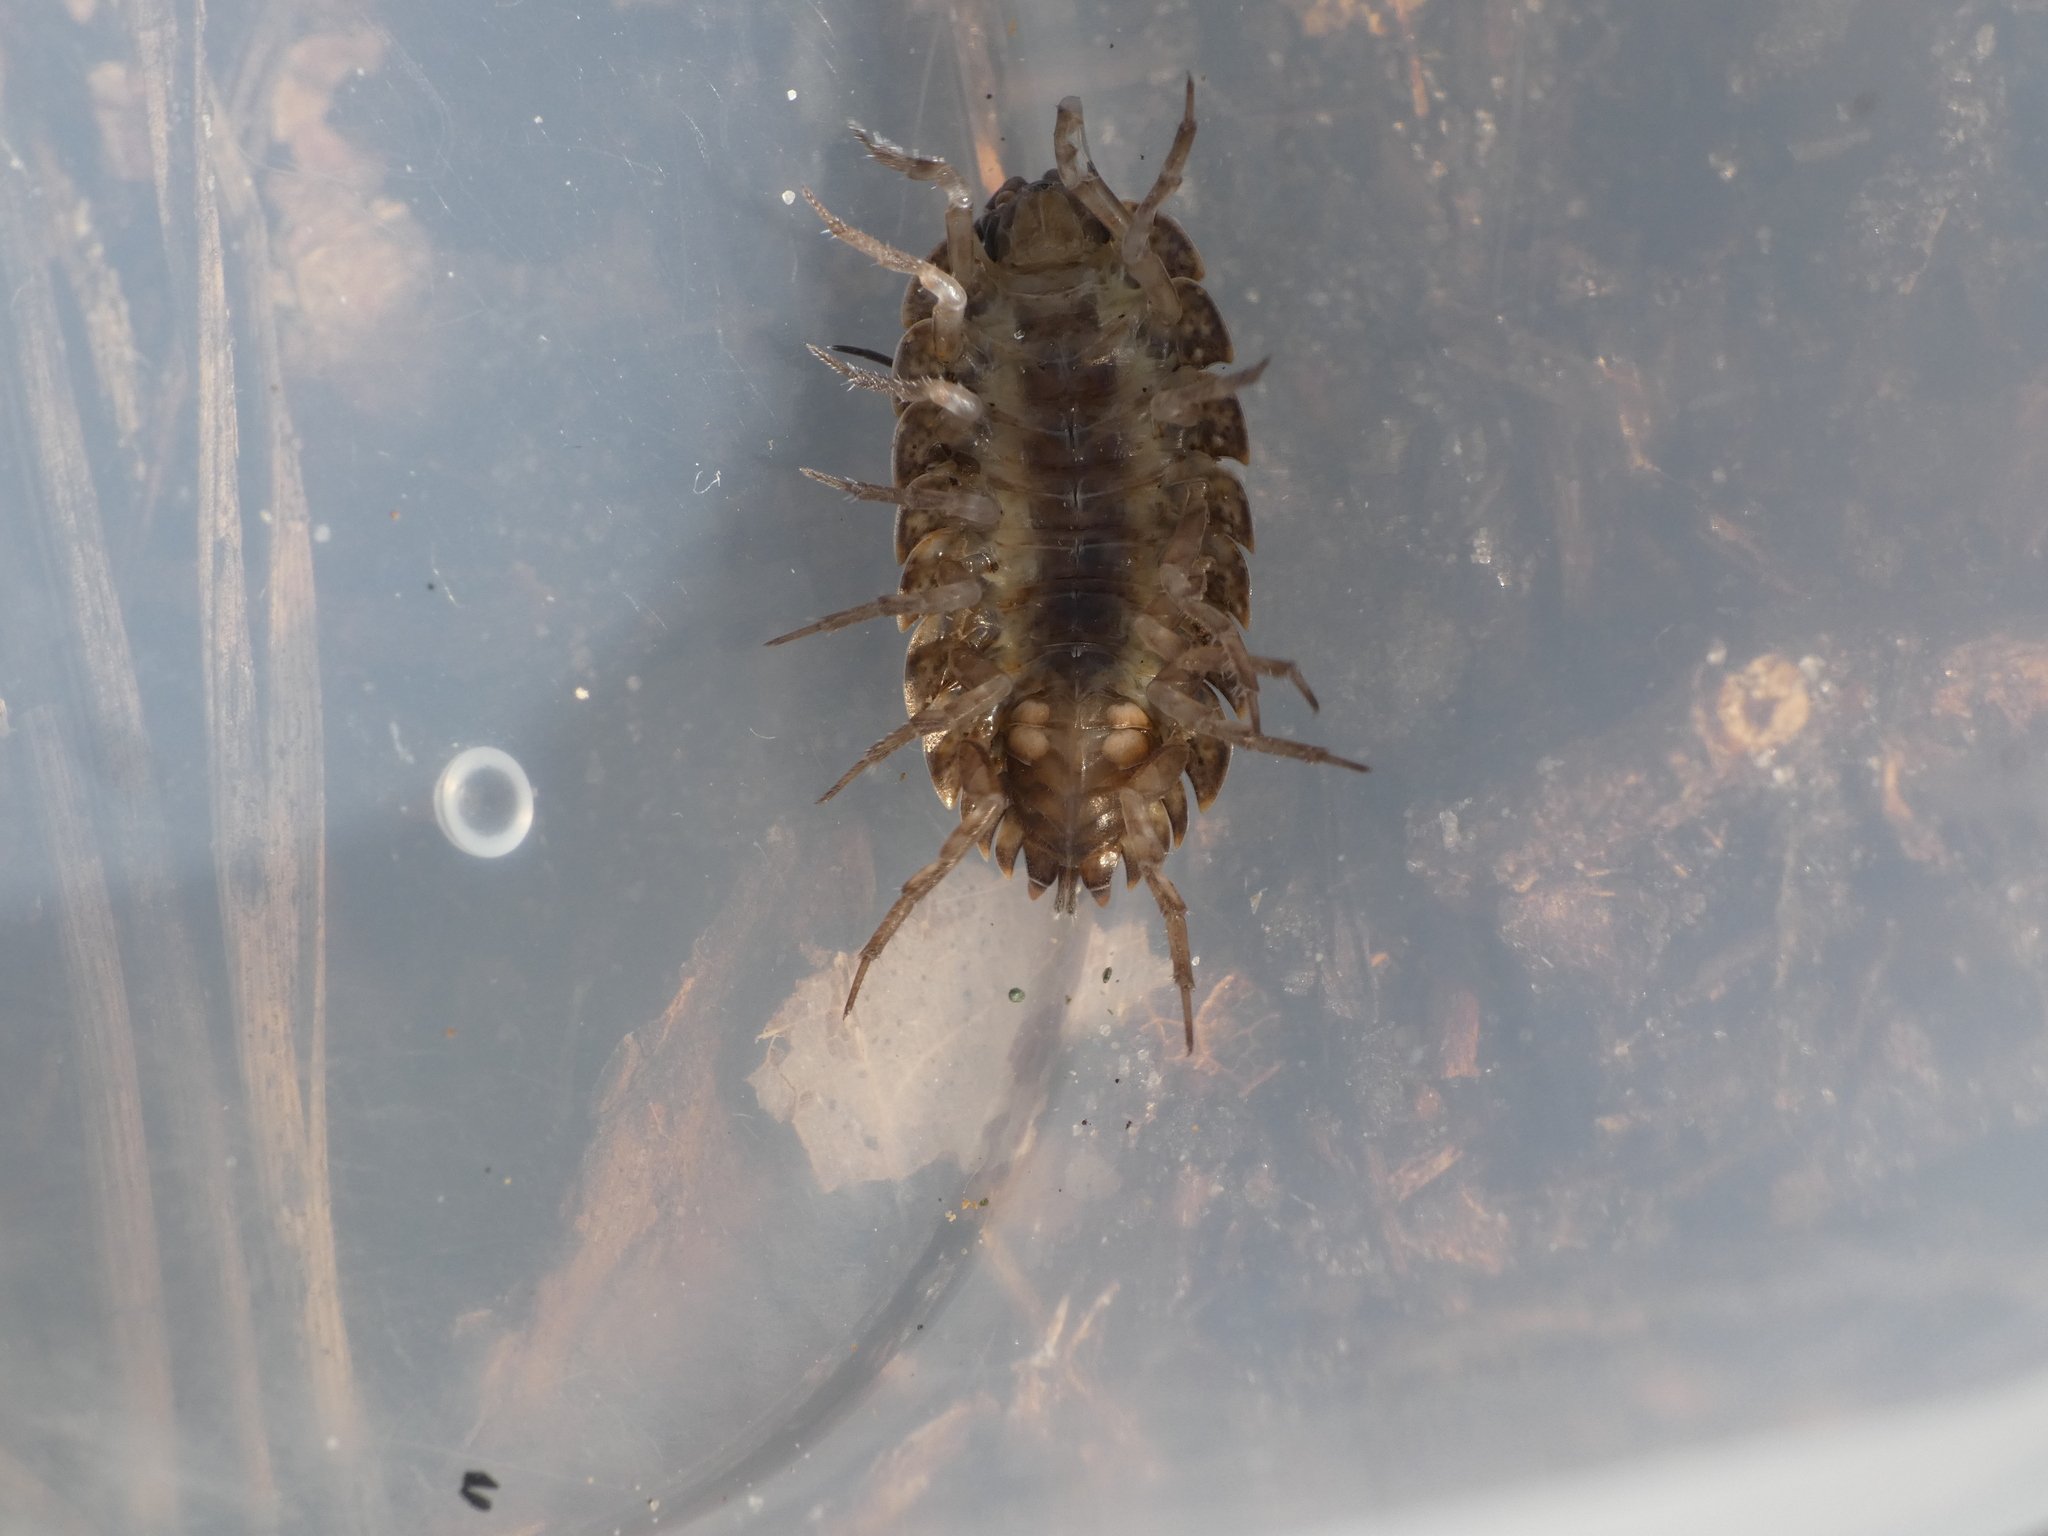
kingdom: Animalia
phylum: Arthropoda
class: Malacostraca
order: Isopoda
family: Porcellionidae
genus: Porcellio
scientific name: Porcellio monticola
